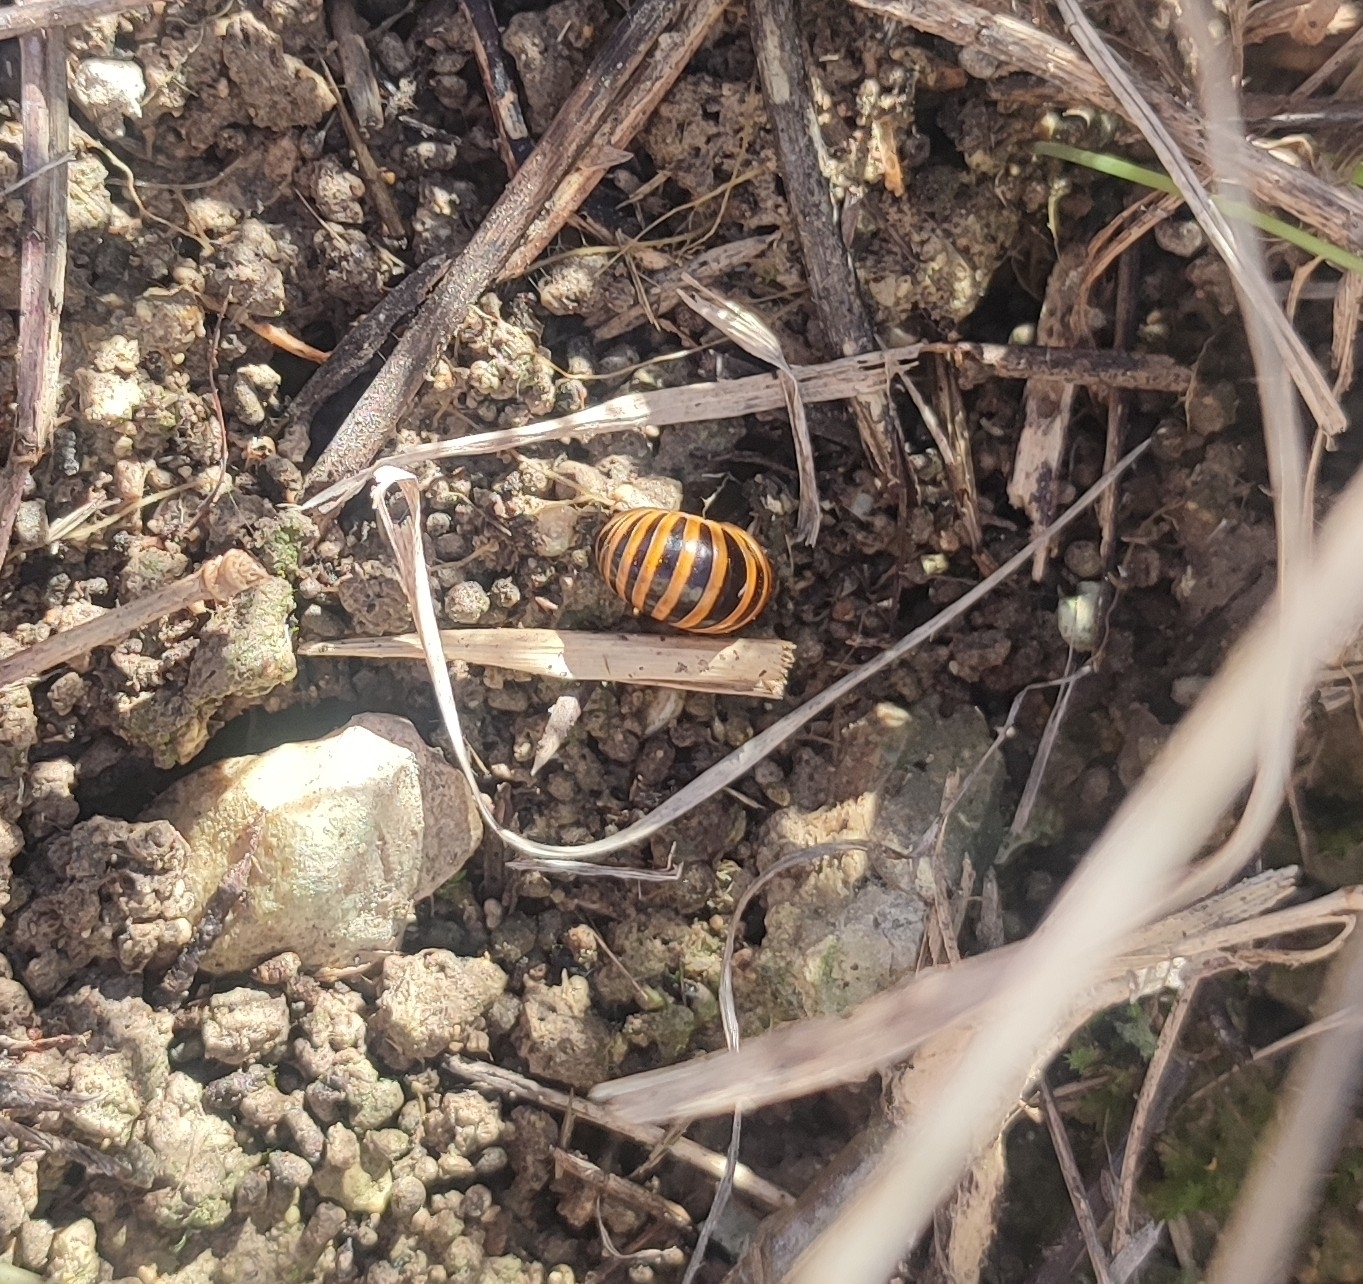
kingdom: Animalia
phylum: Arthropoda
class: Diplopoda
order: Glomerida
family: Glomeridae
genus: Glomeris
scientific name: Glomeris annulata
